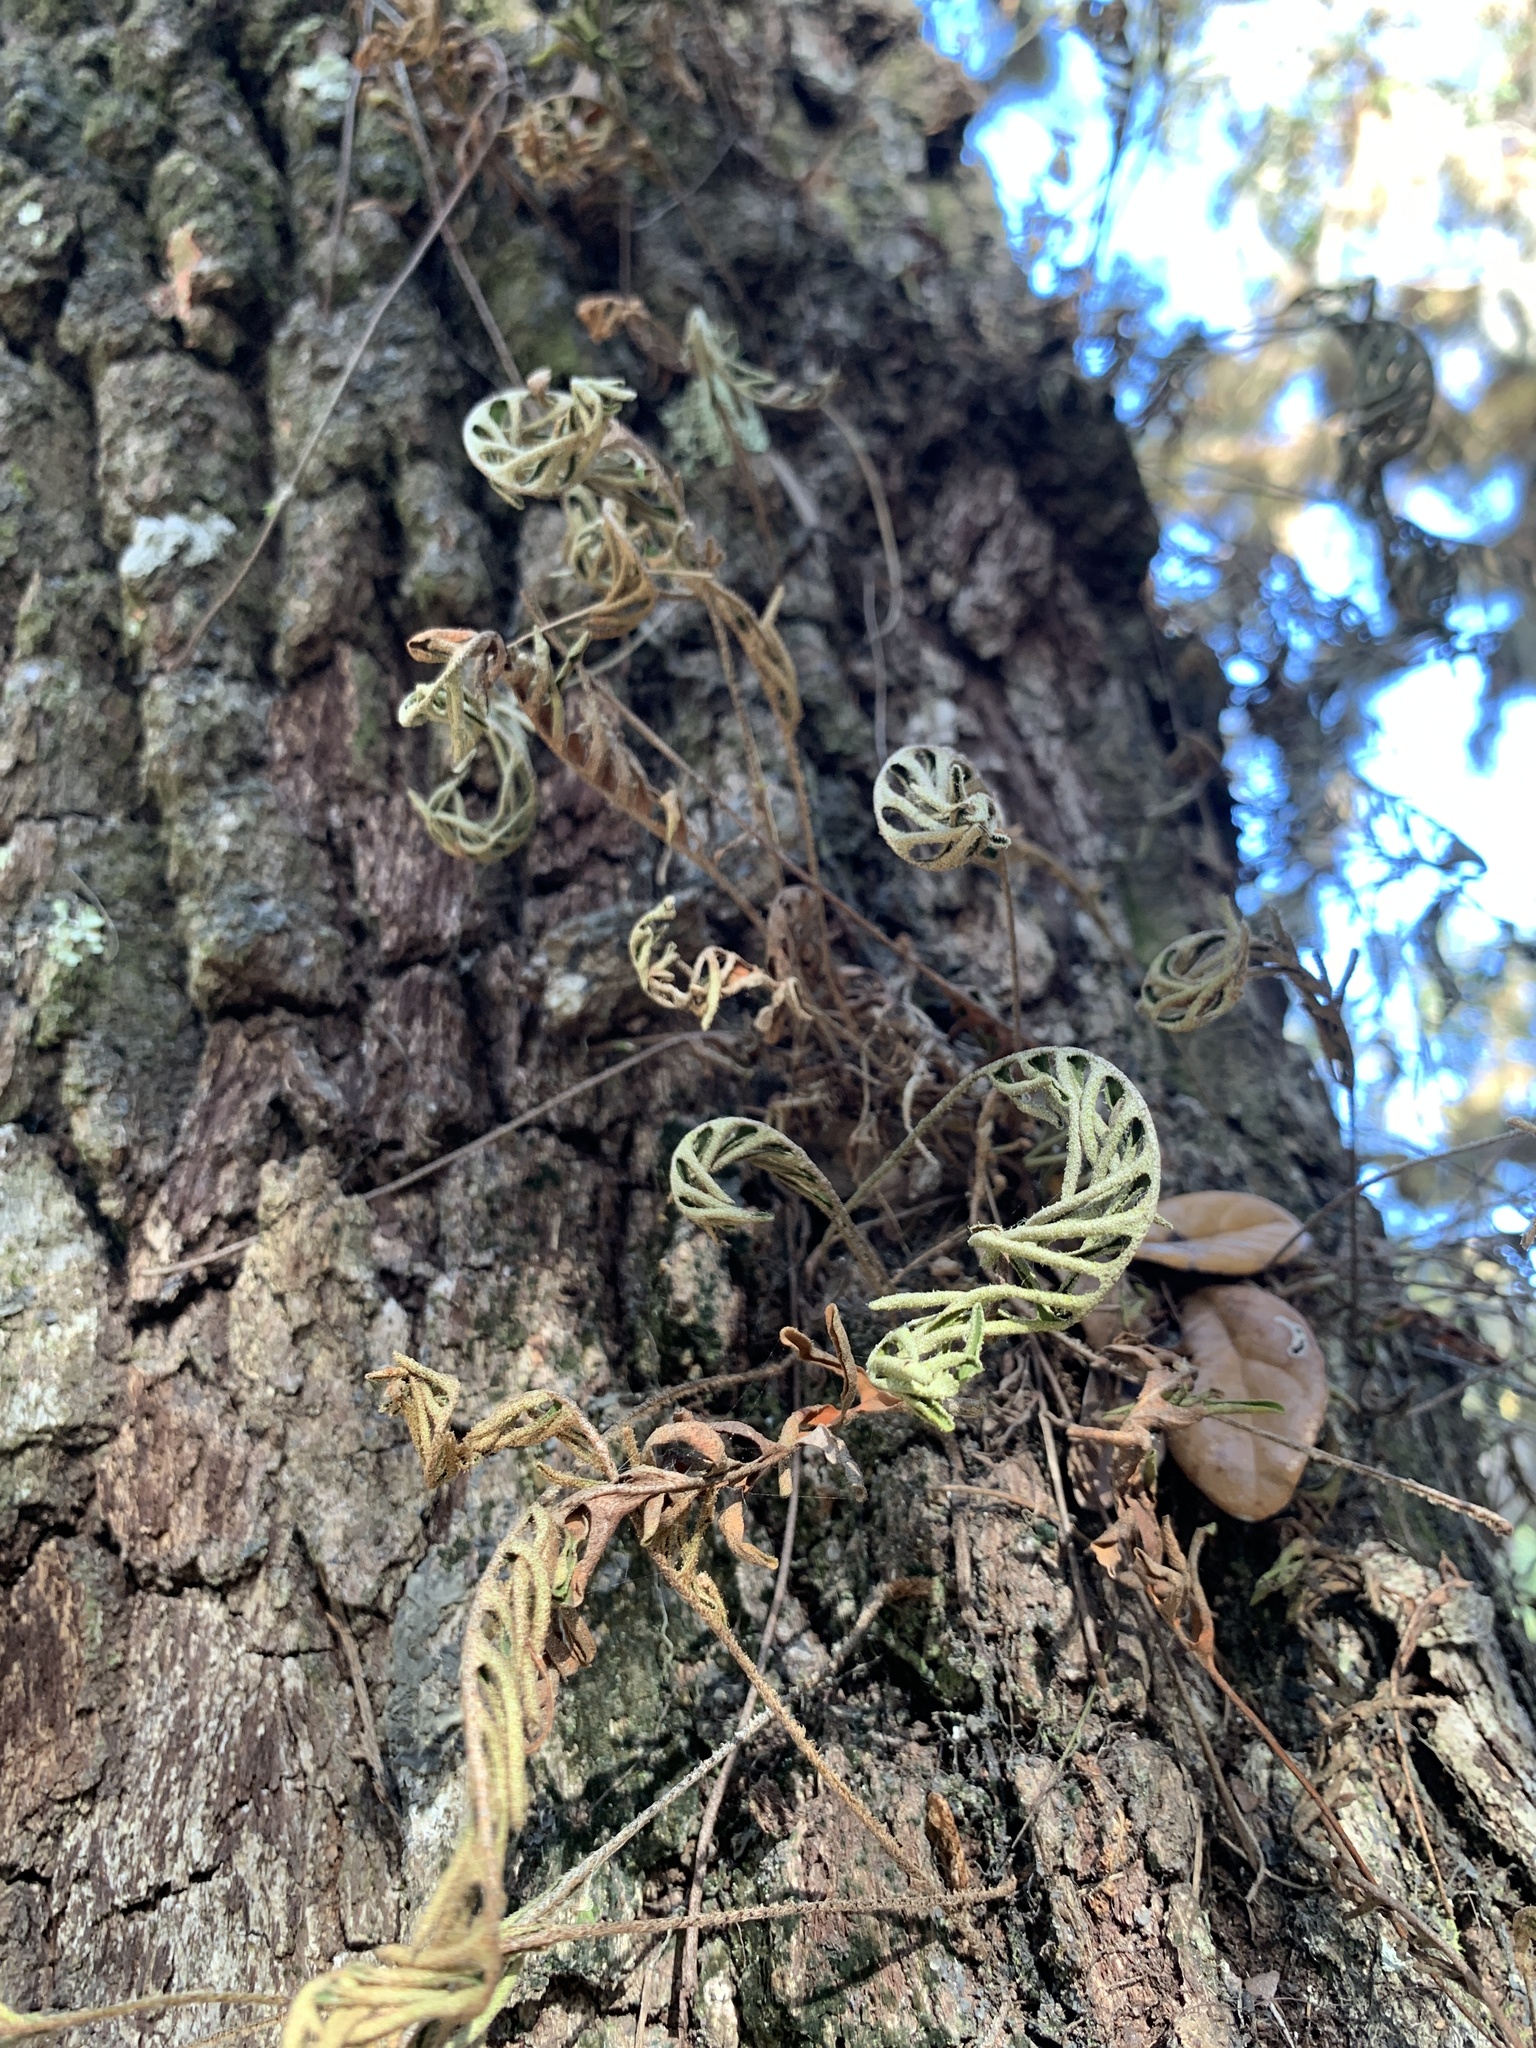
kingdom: Plantae
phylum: Tracheophyta
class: Polypodiopsida
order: Polypodiales
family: Polypodiaceae
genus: Pleopeltis
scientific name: Pleopeltis michauxiana
